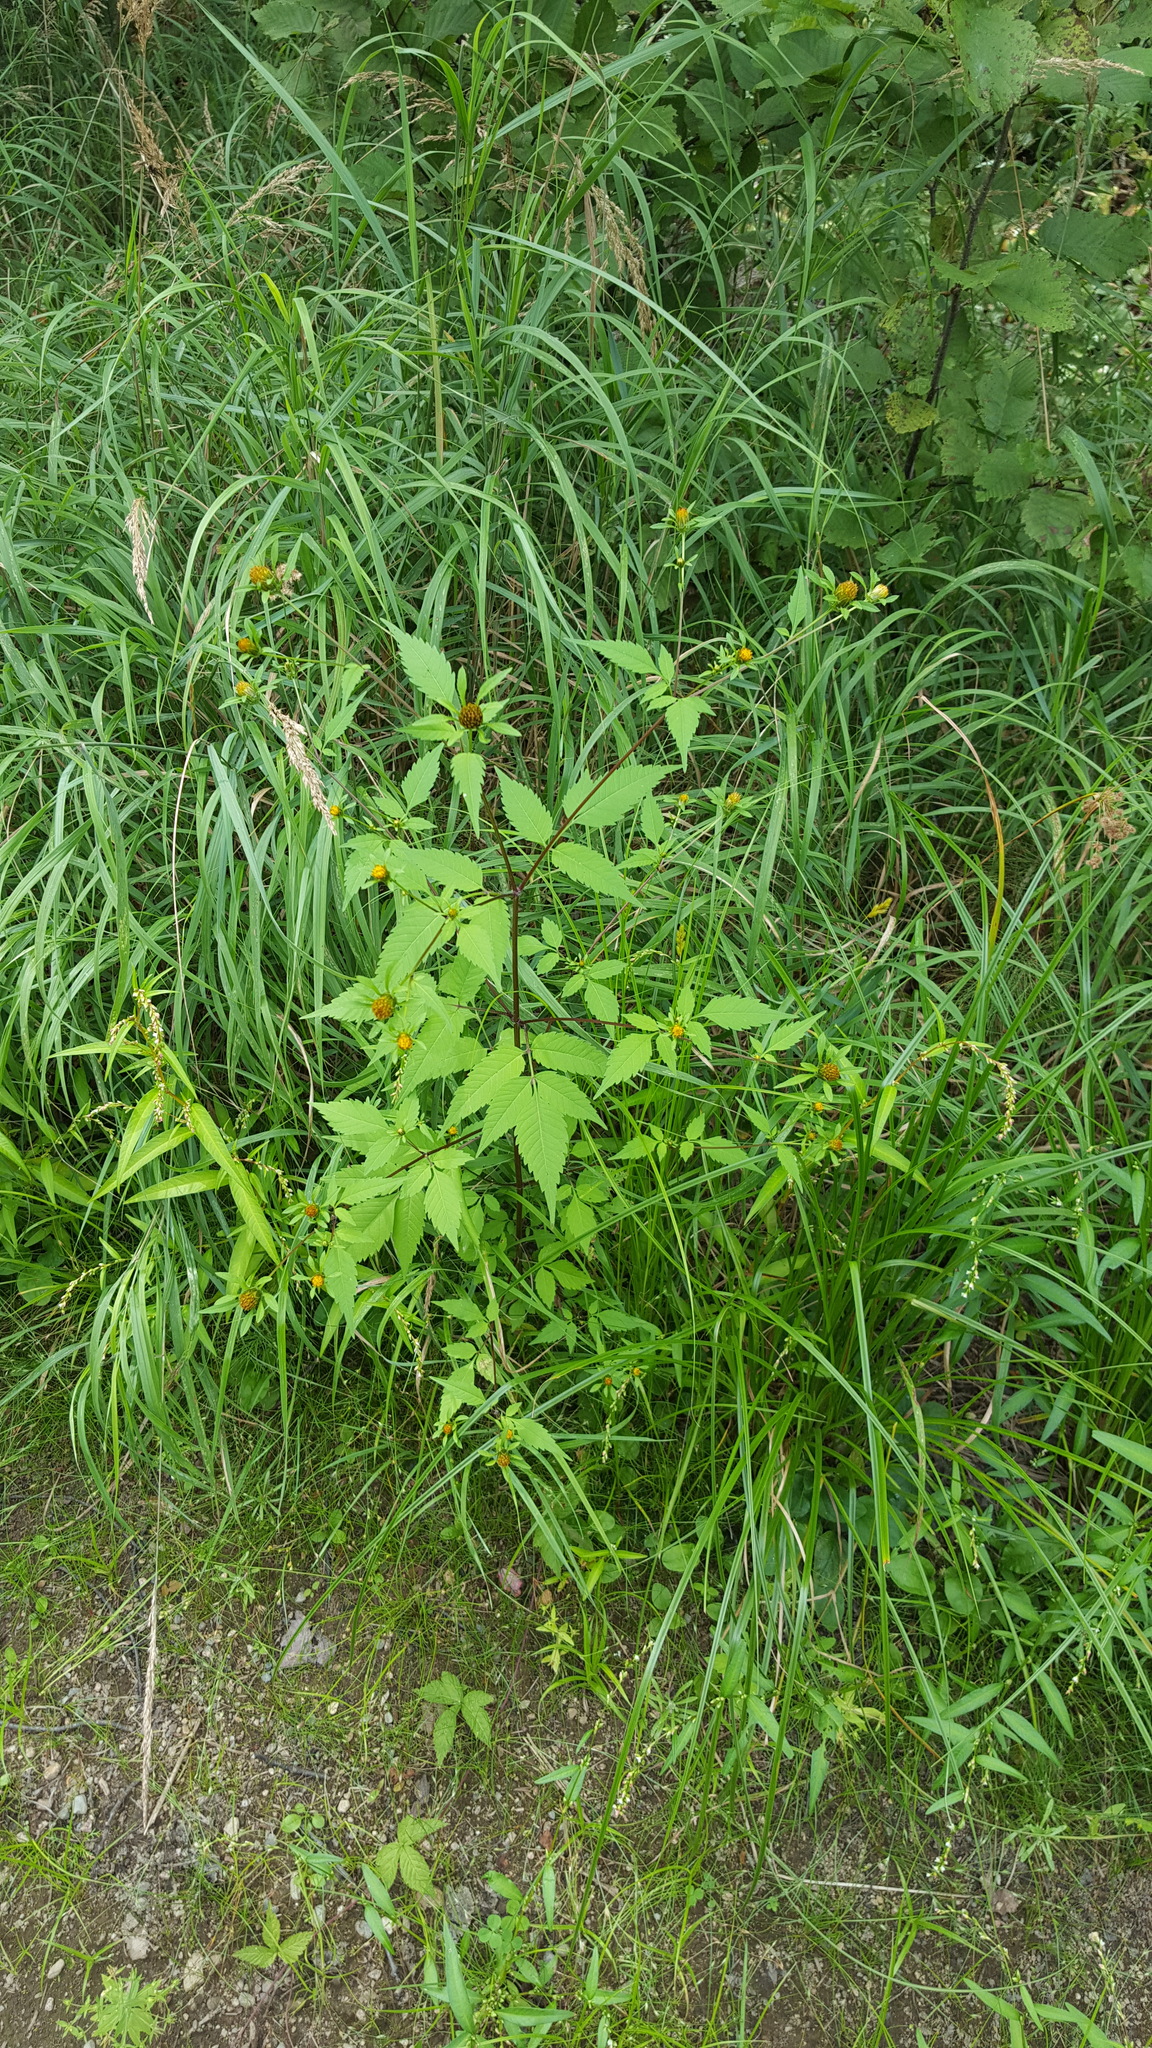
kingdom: Plantae
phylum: Tracheophyta
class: Magnoliopsida
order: Asterales
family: Asteraceae
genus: Bidens
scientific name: Bidens frondosa
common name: Beggarticks
